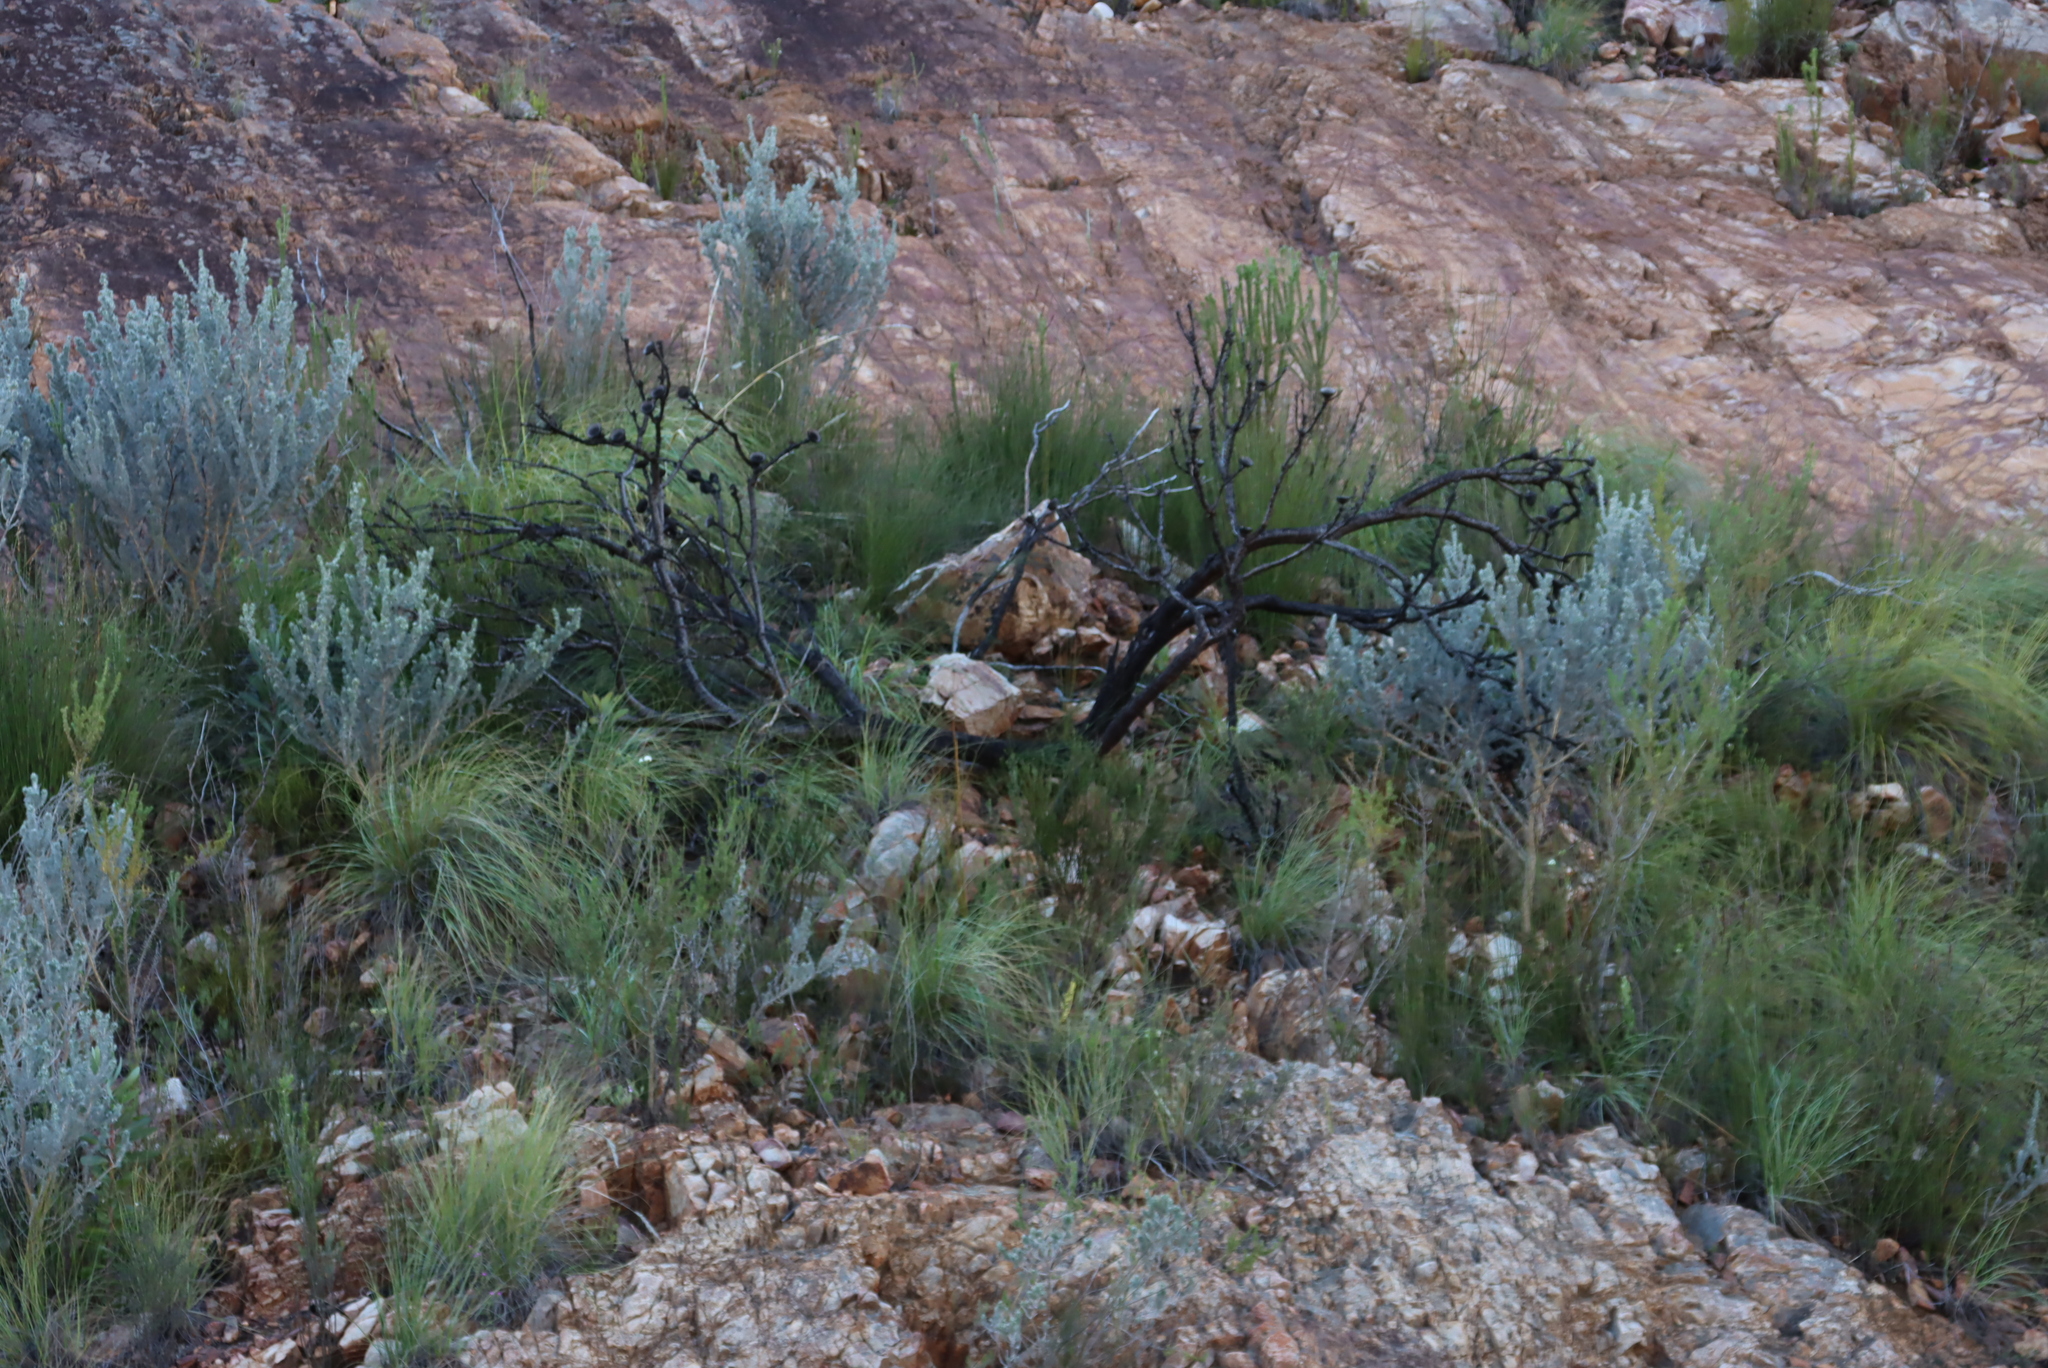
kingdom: Plantae
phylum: Tracheophyta
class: Magnoliopsida
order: Proteales
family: Proteaceae
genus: Protea
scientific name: Protea lorifolia
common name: Strap-leaved protea
